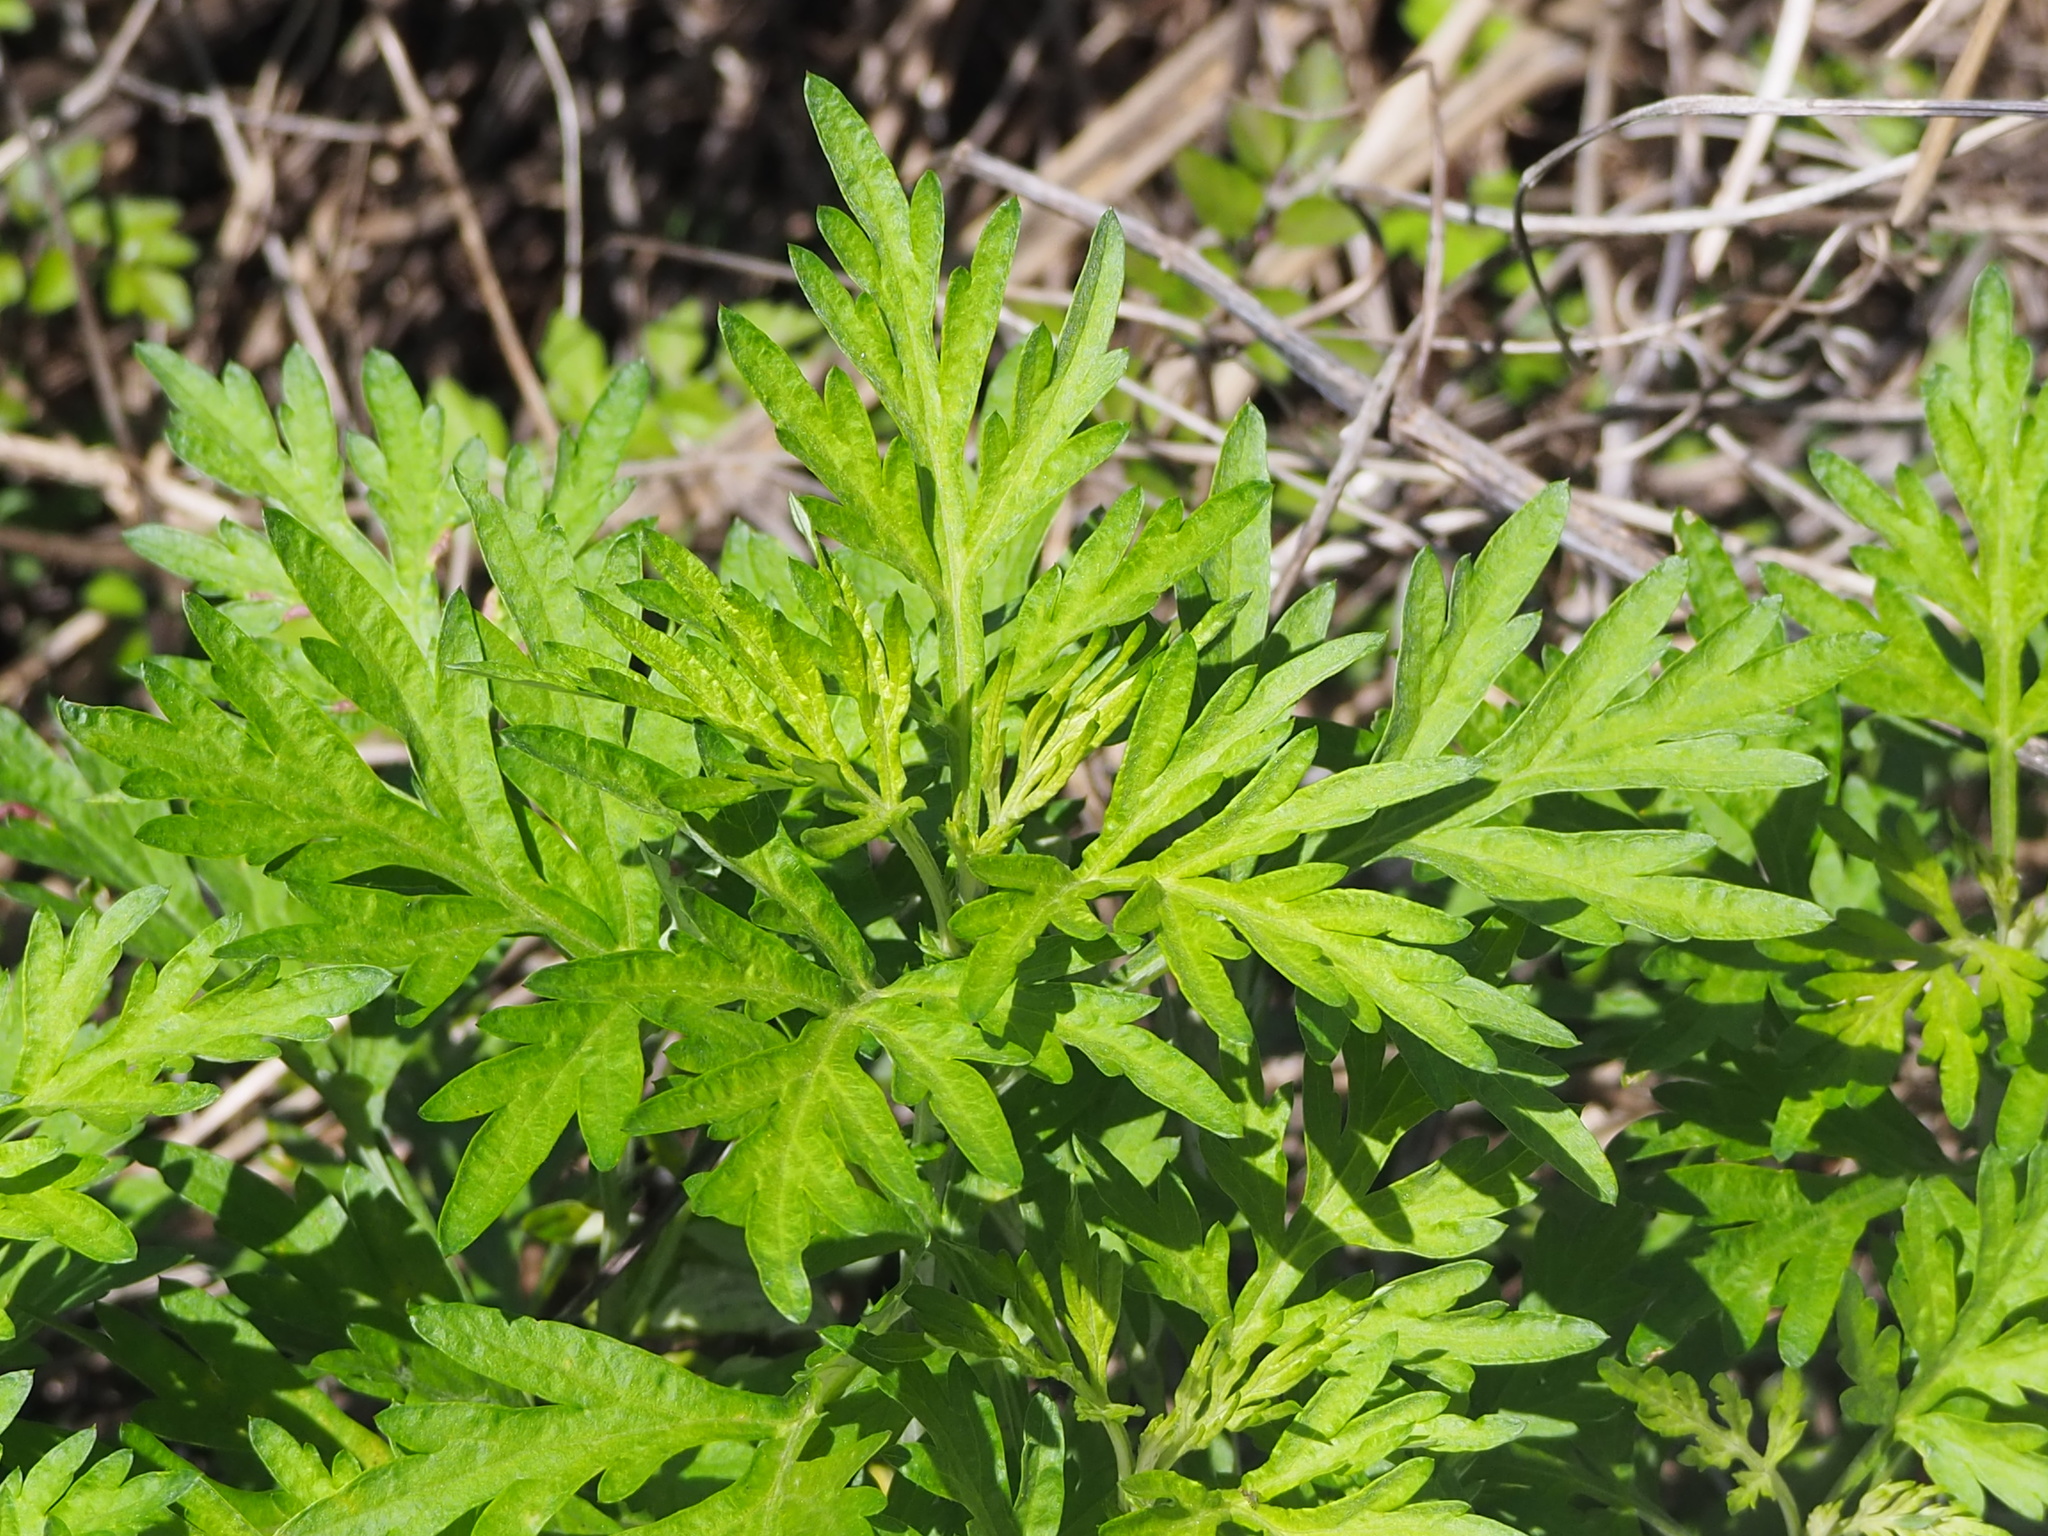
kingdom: Plantae
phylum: Tracheophyta
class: Magnoliopsida
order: Asterales
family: Asteraceae
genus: Artemisia
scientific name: Artemisia indica
